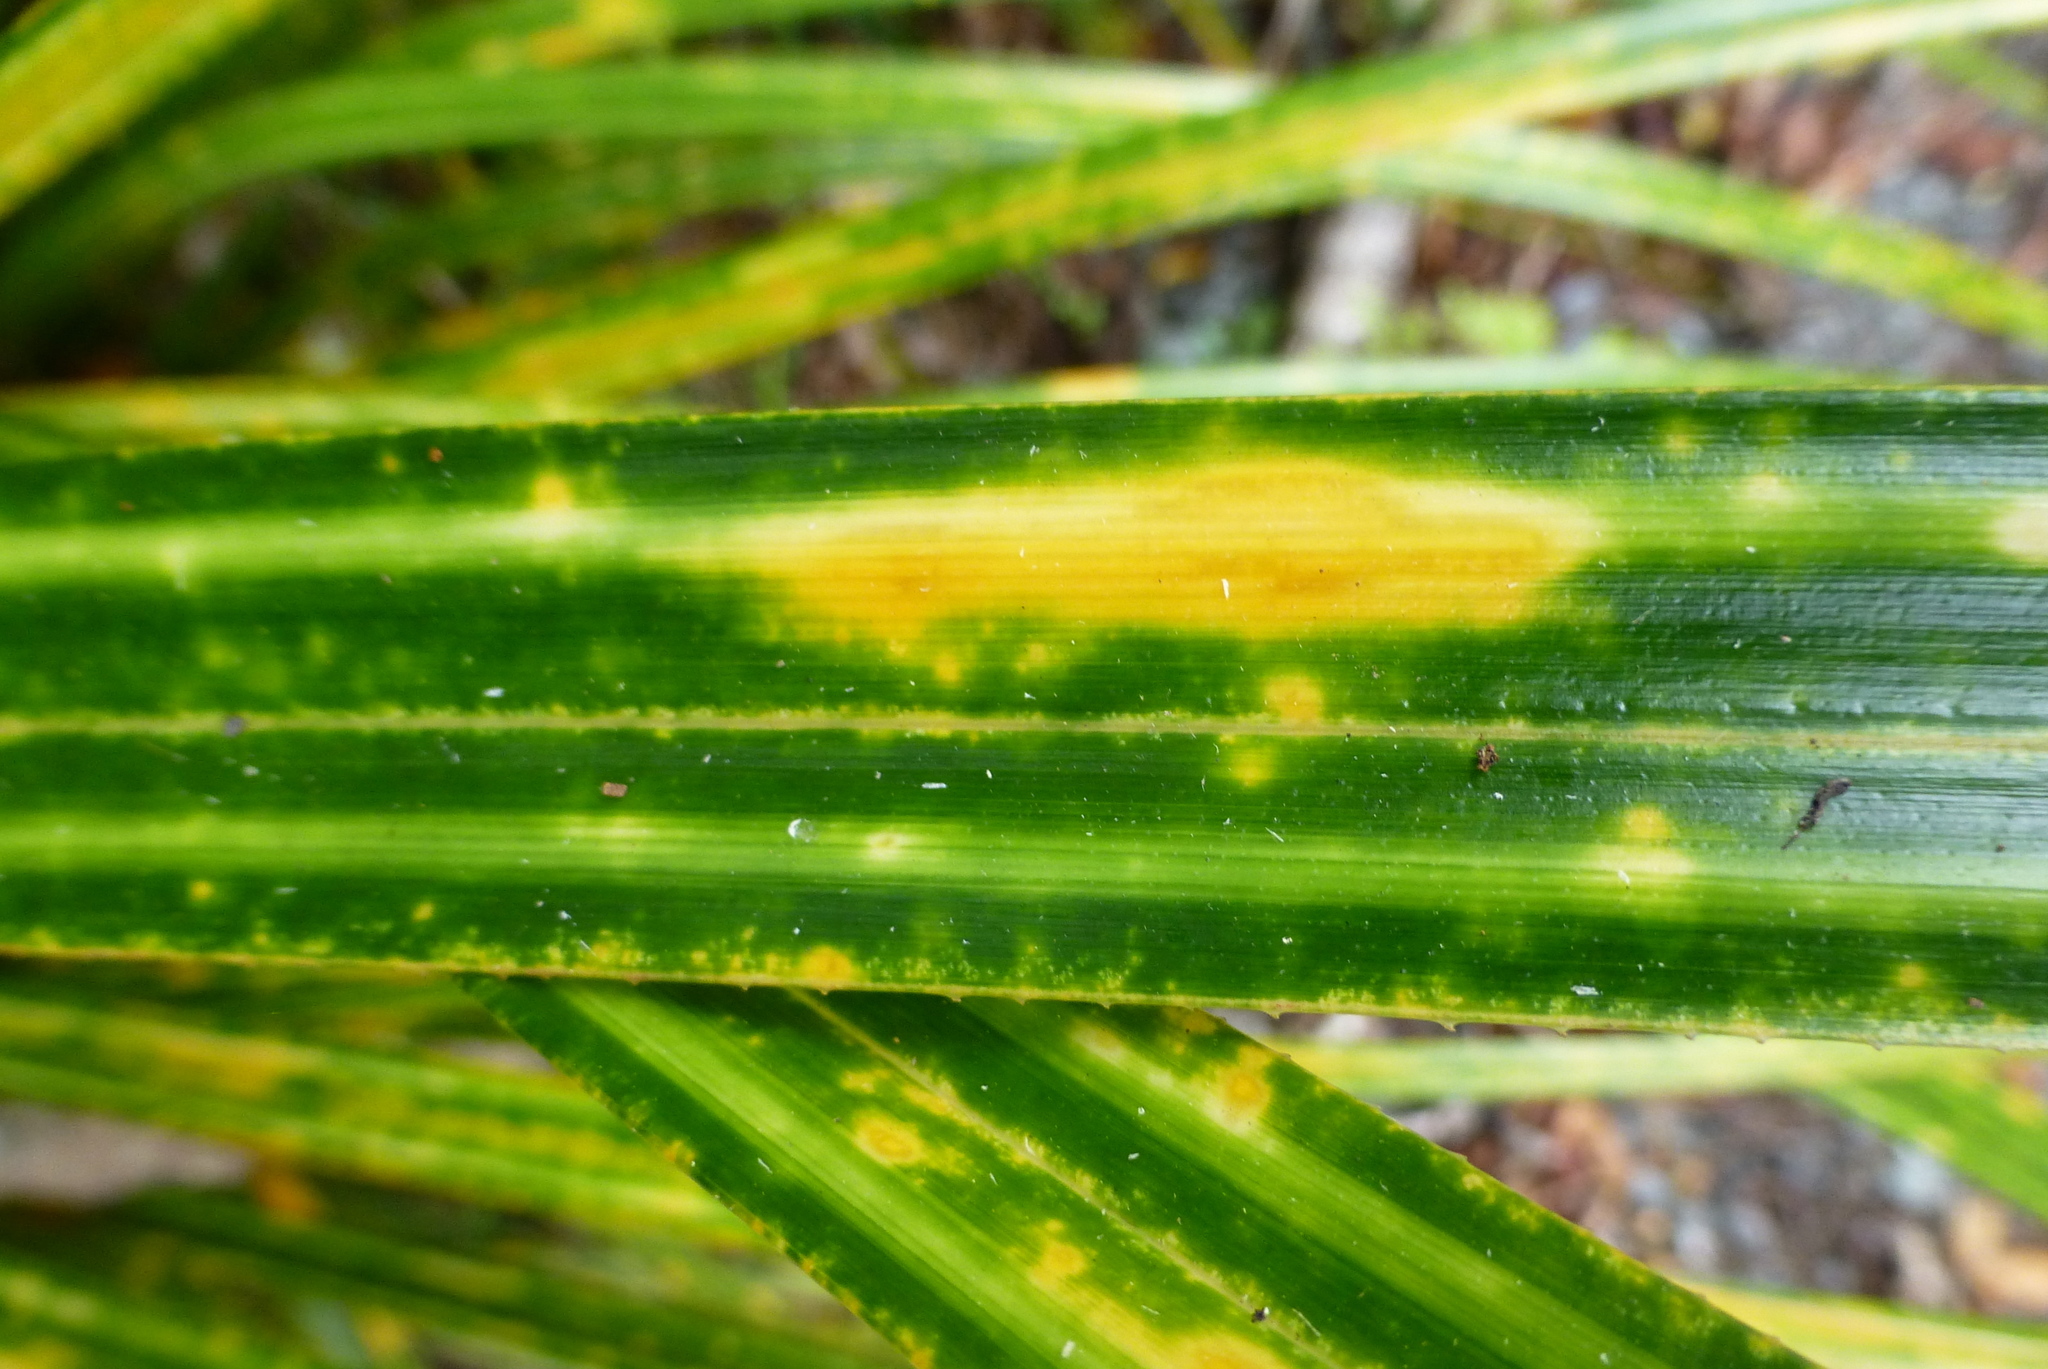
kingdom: Plantae
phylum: Tracheophyta
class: Liliopsida
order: Pandanales
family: Pandanaceae
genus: Freycinetia
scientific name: Freycinetia banksii
